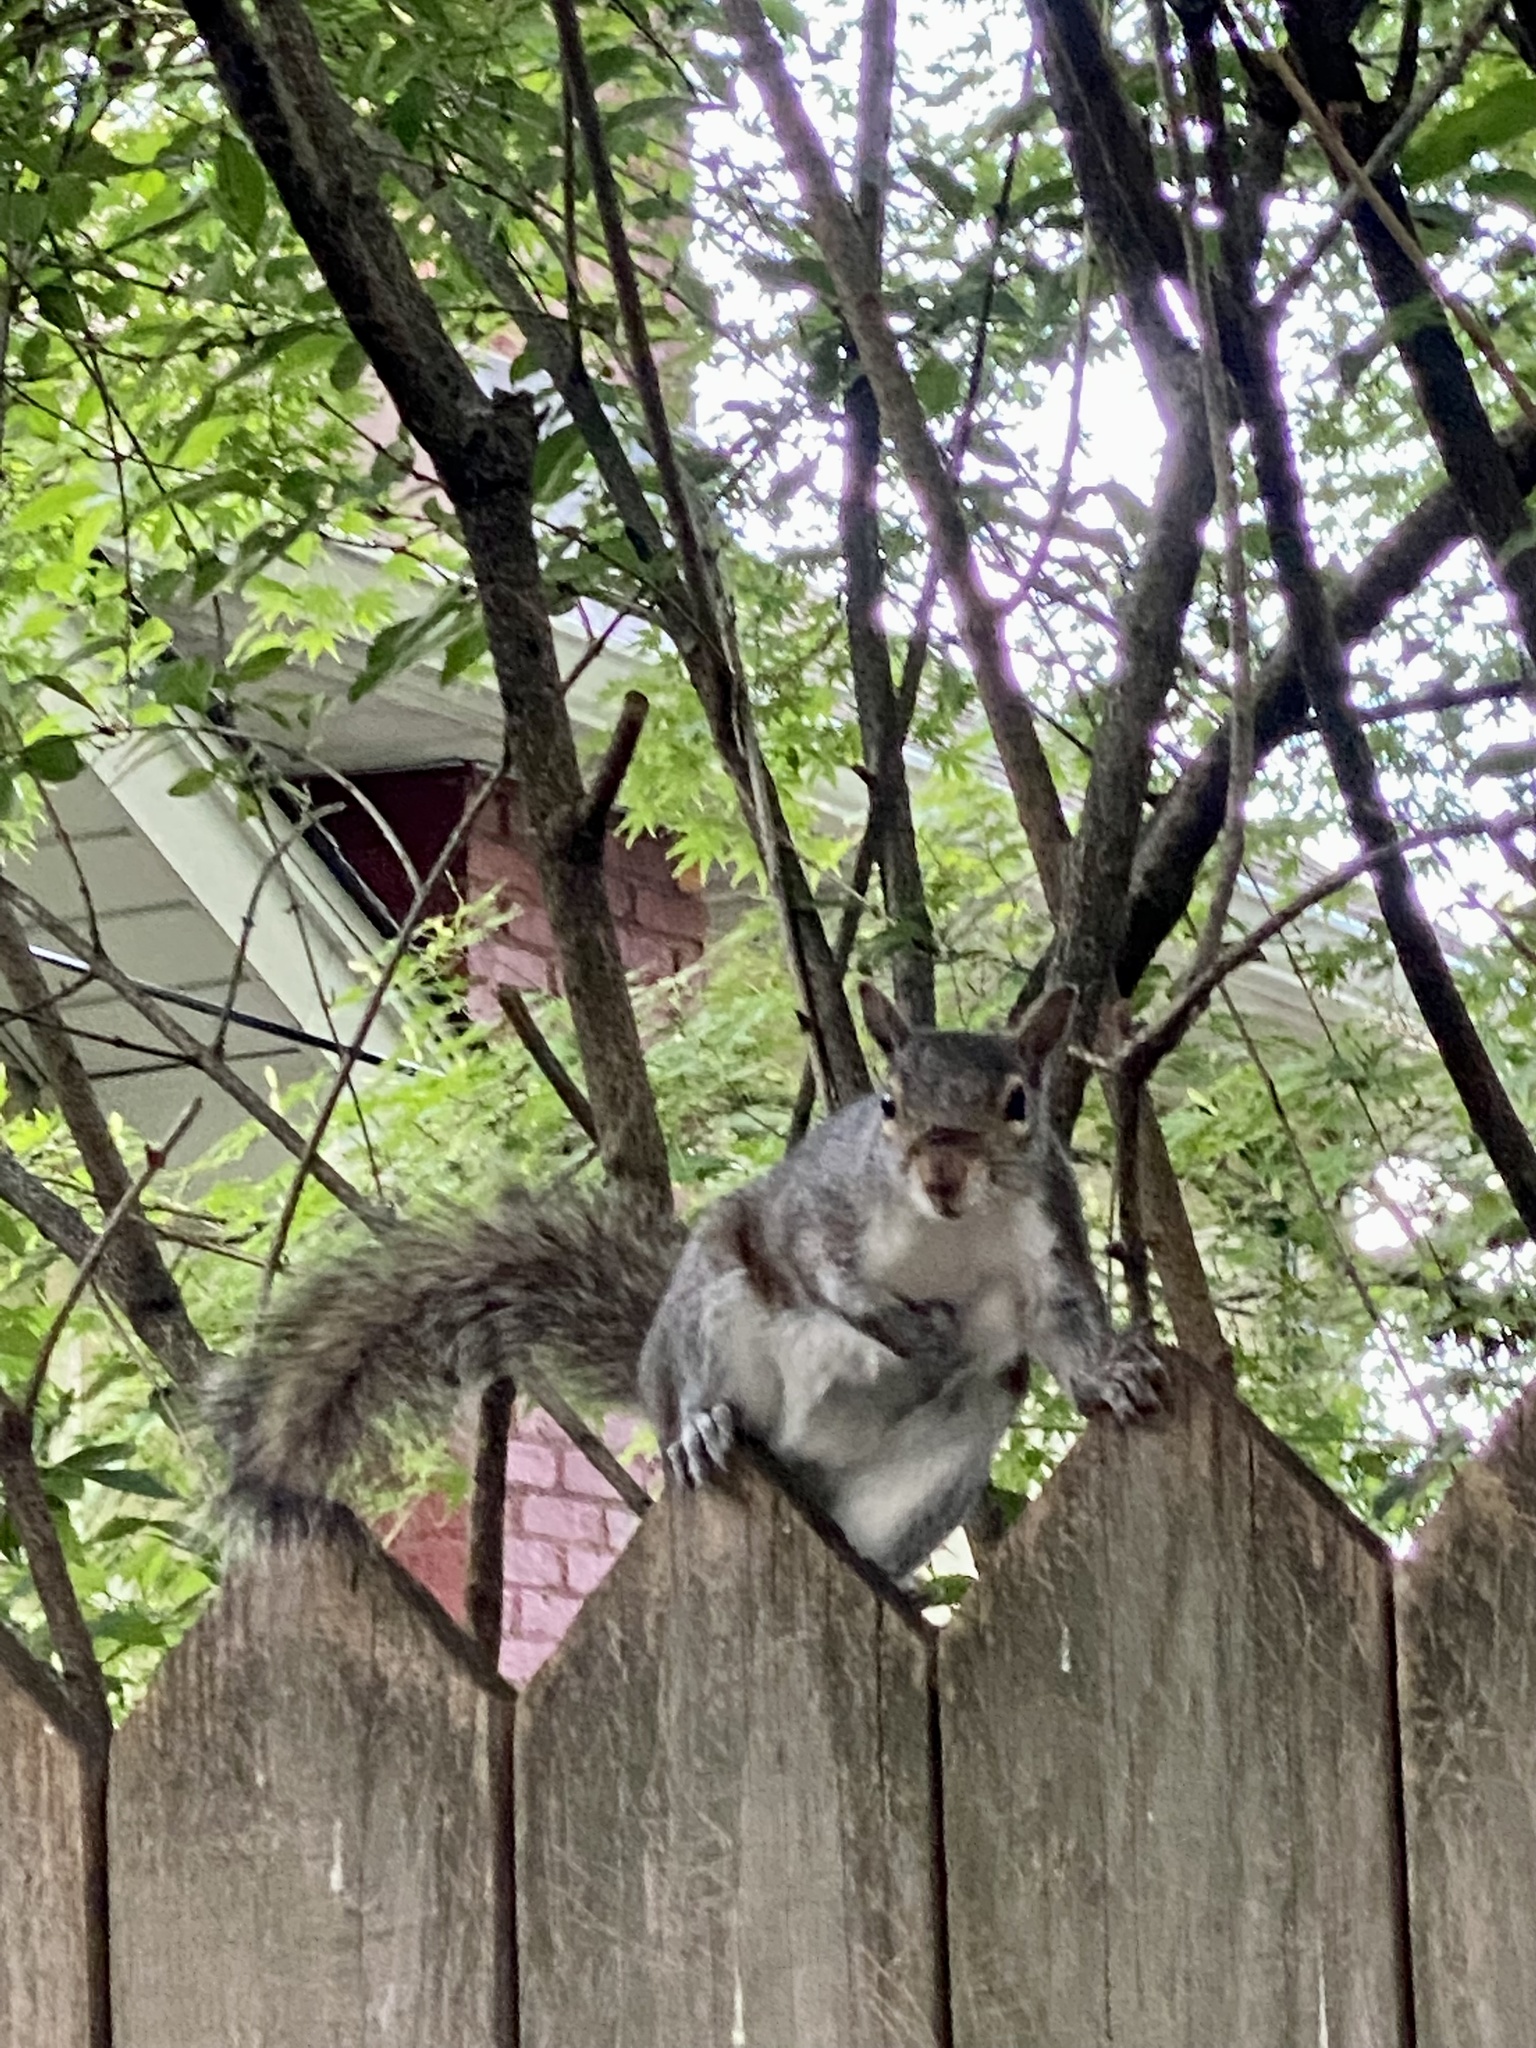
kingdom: Animalia
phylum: Chordata
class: Mammalia
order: Rodentia
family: Sciuridae
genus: Sciurus
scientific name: Sciurus carolinensis
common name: Eastern gray squirrel
